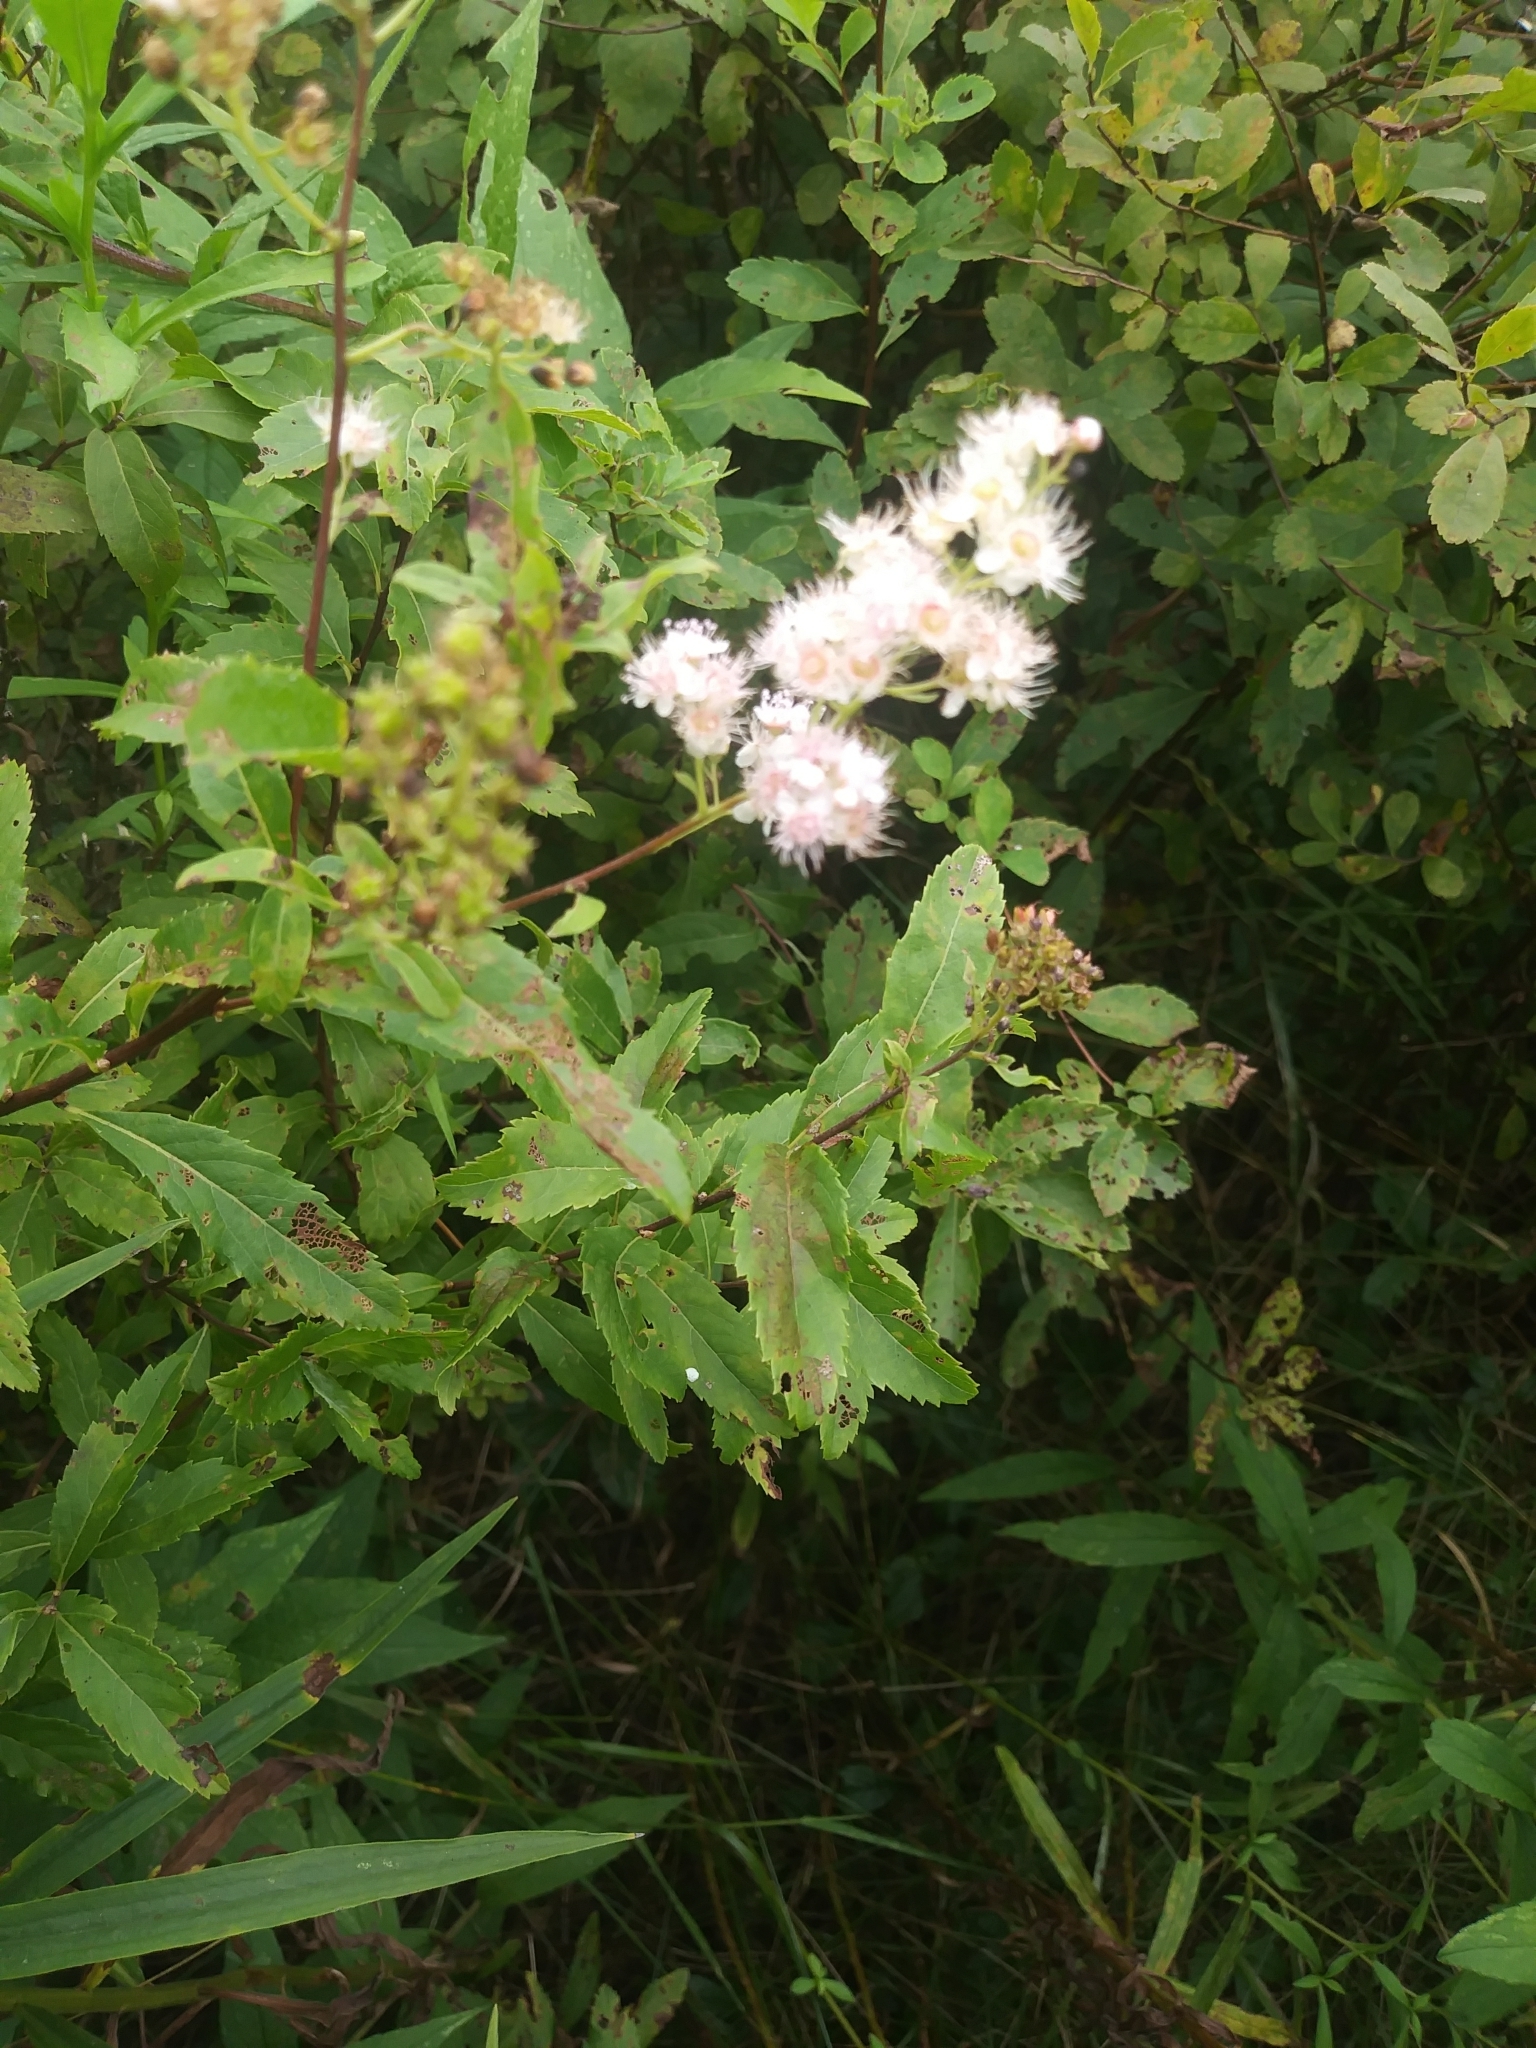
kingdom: Plantae
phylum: Tracheophyta
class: Magnoliopsida
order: Rosales
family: Rosaceae
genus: Spiraea
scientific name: Spiraea alba
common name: Pale bridewort
